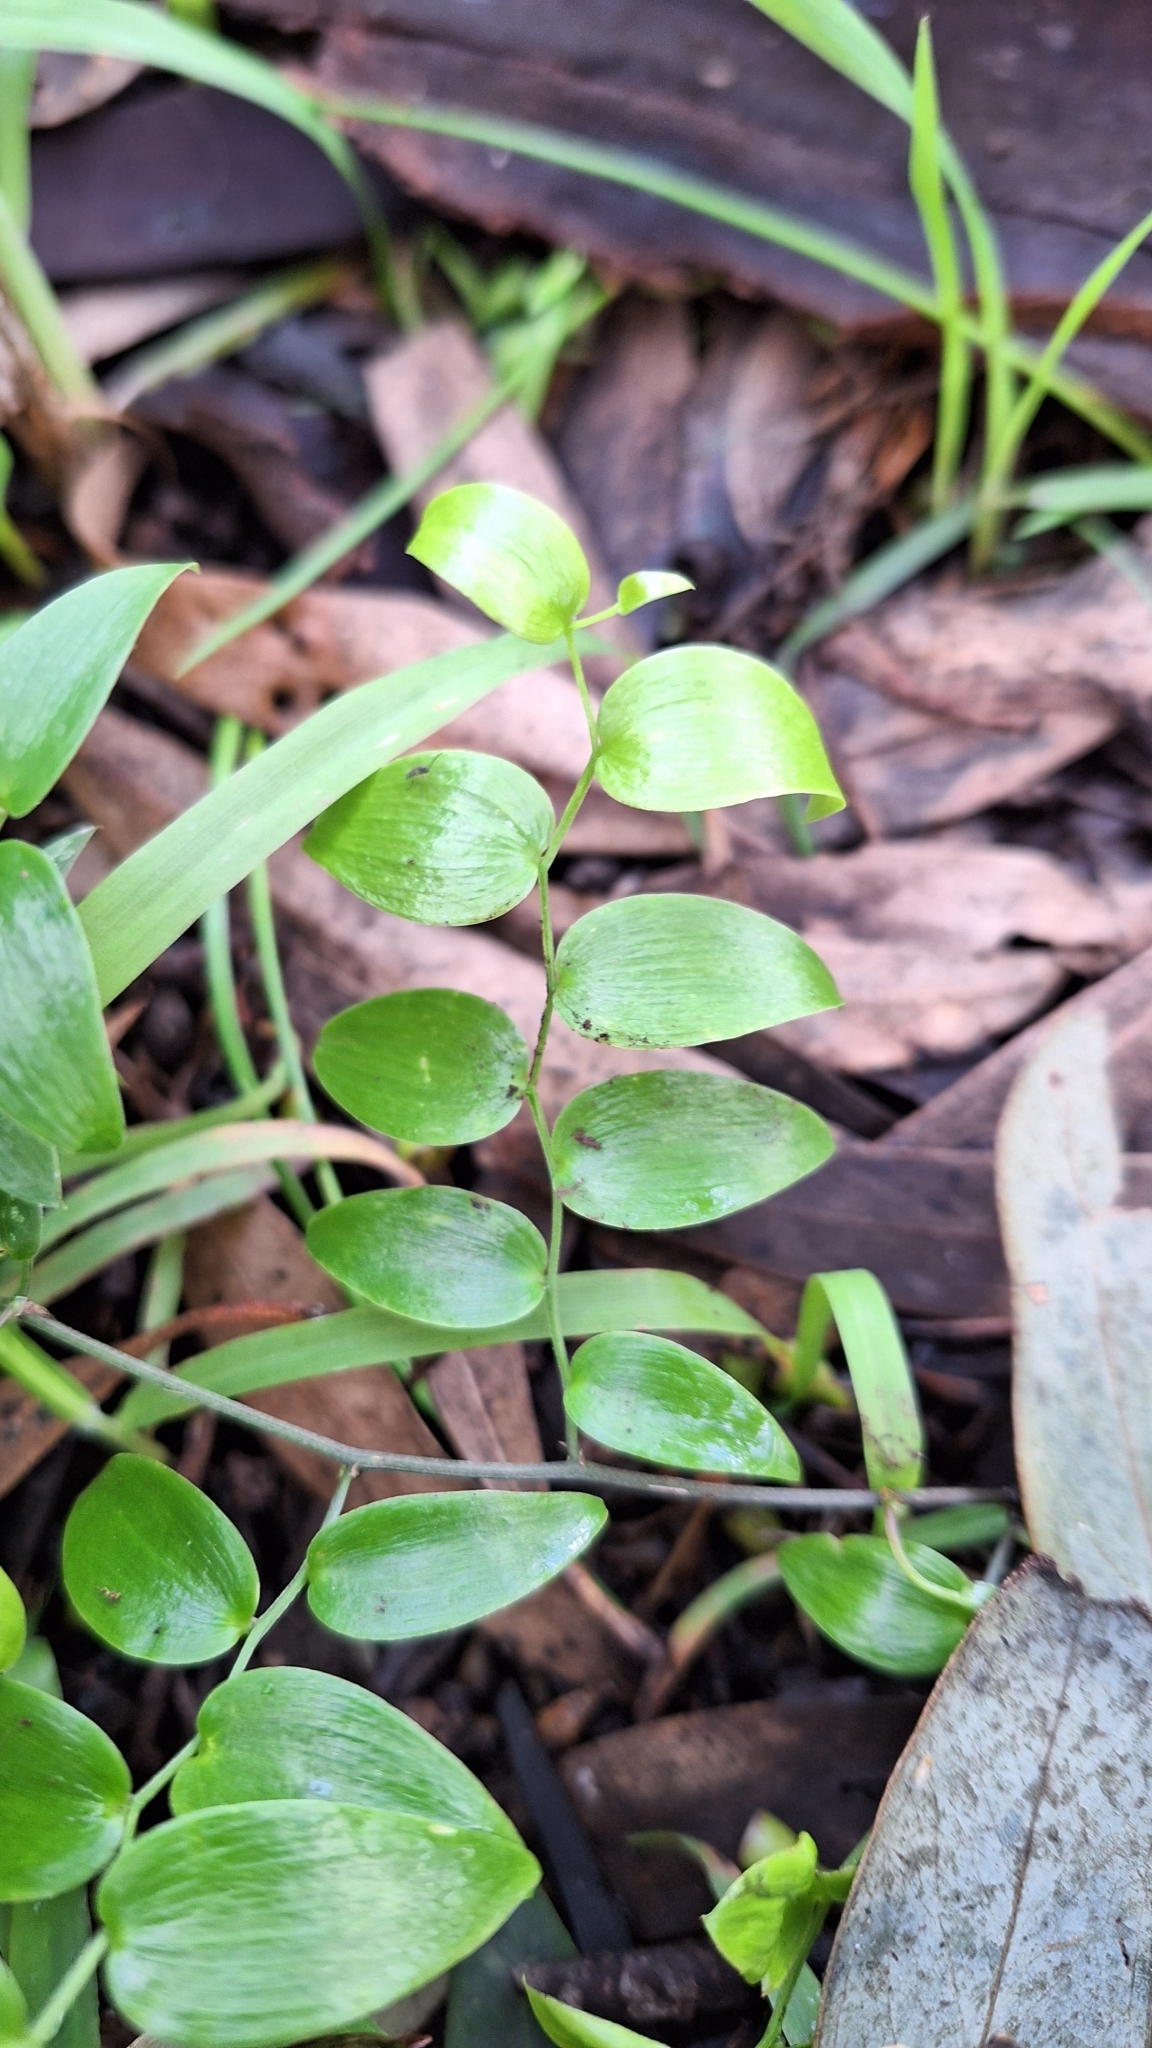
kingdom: Plantae
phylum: Tracheophyta
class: Liliopsida
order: Asparagales
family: Asparagaceae
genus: Asparagus
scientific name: Asparagus asparagoides
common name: African asparagus fern
